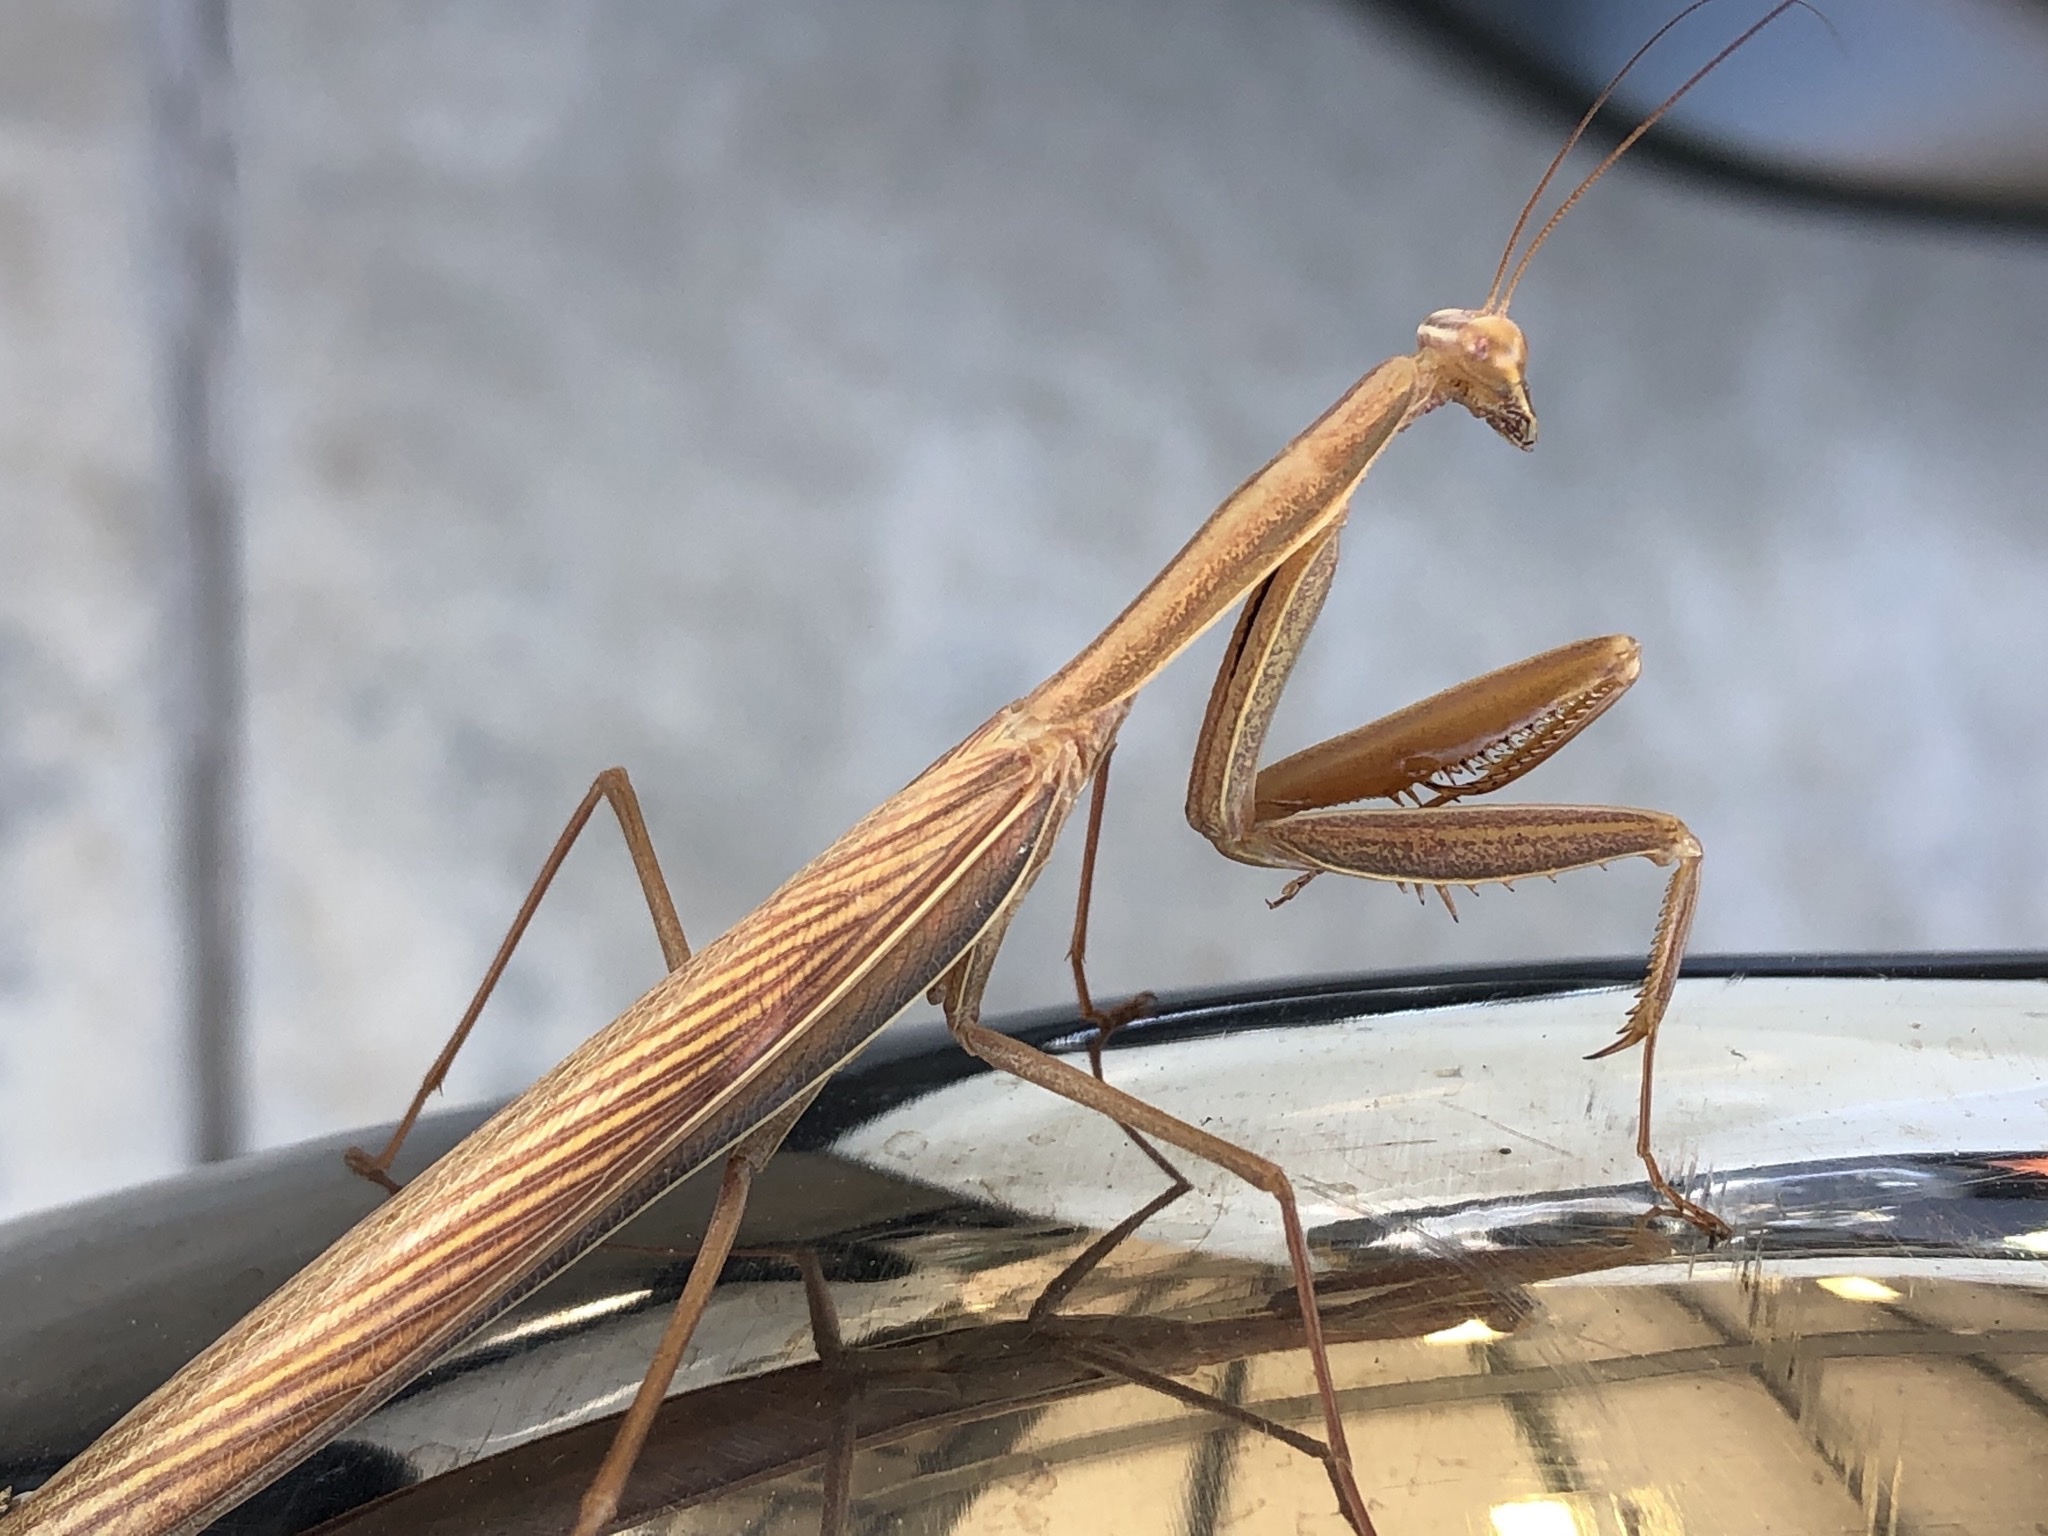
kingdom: Animalia
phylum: Arthropoda
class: Insecta
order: Mantodea
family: Mantidae
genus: Paramantis
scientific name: Paramantis sacra
